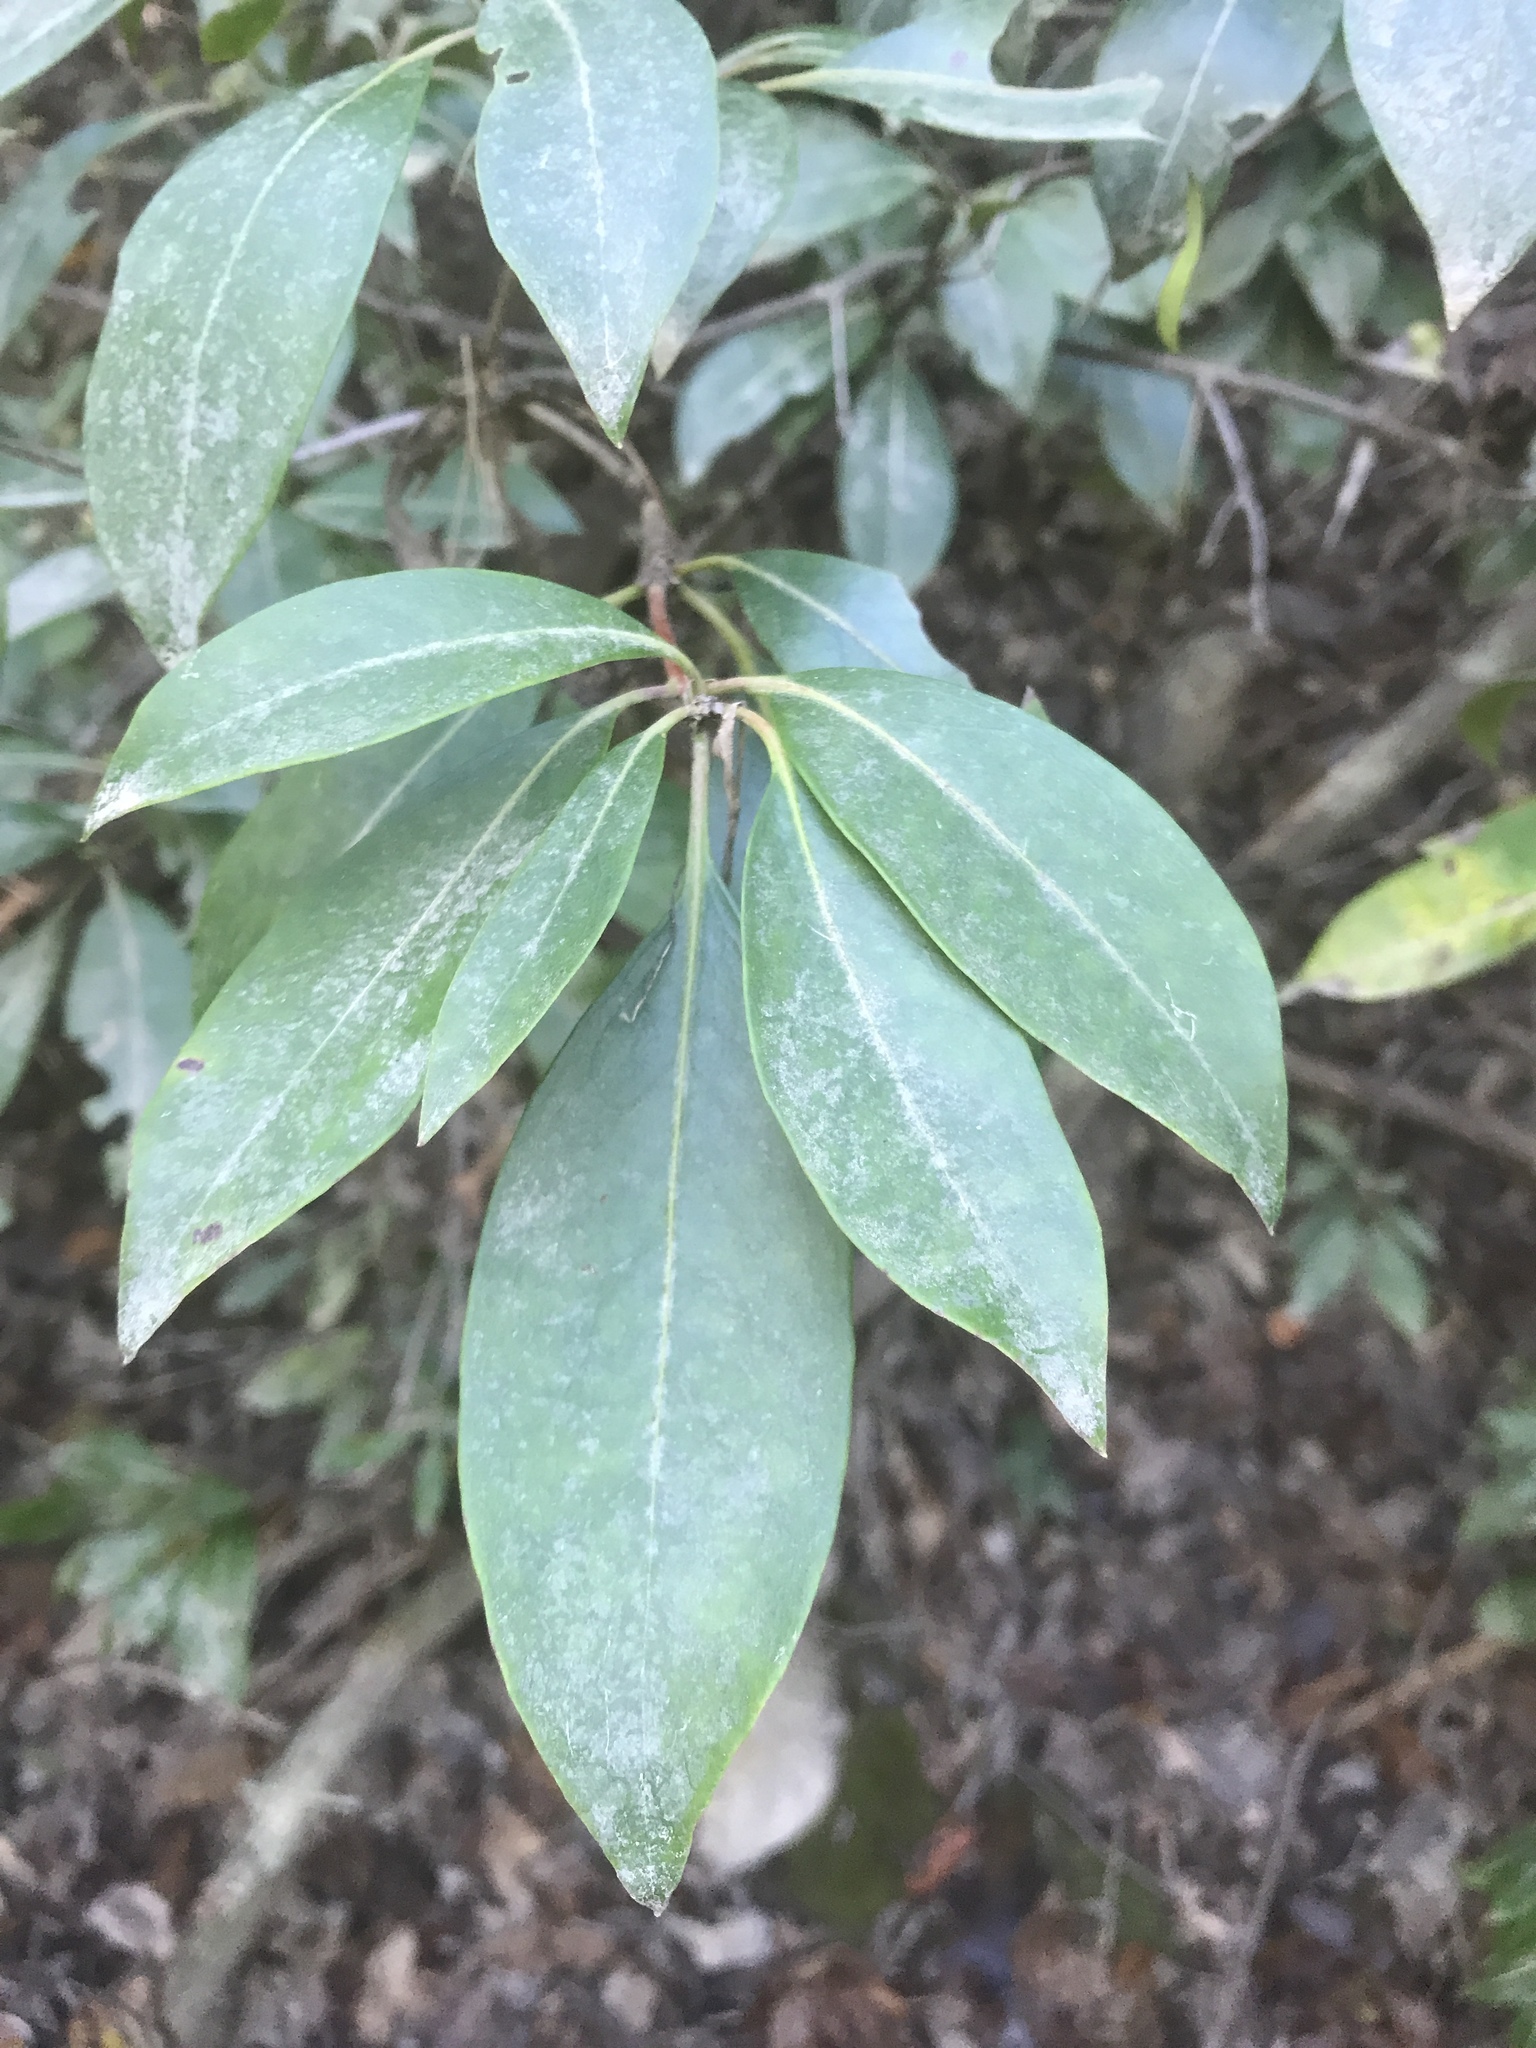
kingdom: Plantae
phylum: Tracheophyta
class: Magnoliopsida
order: Ericales
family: Ericaceae
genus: Kalmia
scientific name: Kalmia latifolia
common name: Mountain-laurel
